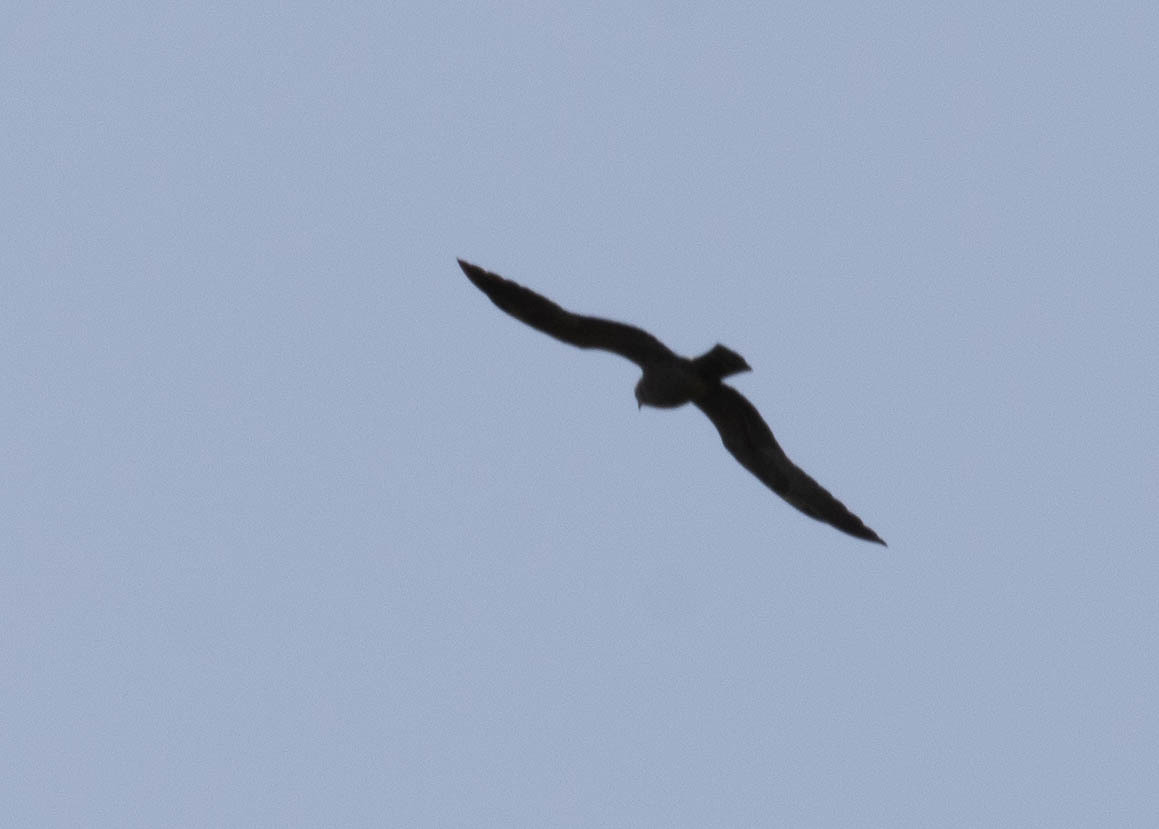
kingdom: Animalia
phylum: Chordata
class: Aves
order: Accipitriformes
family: Accipitridae
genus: Ictinia
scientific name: Ictinia mississippiensis
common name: Mississippi kite
